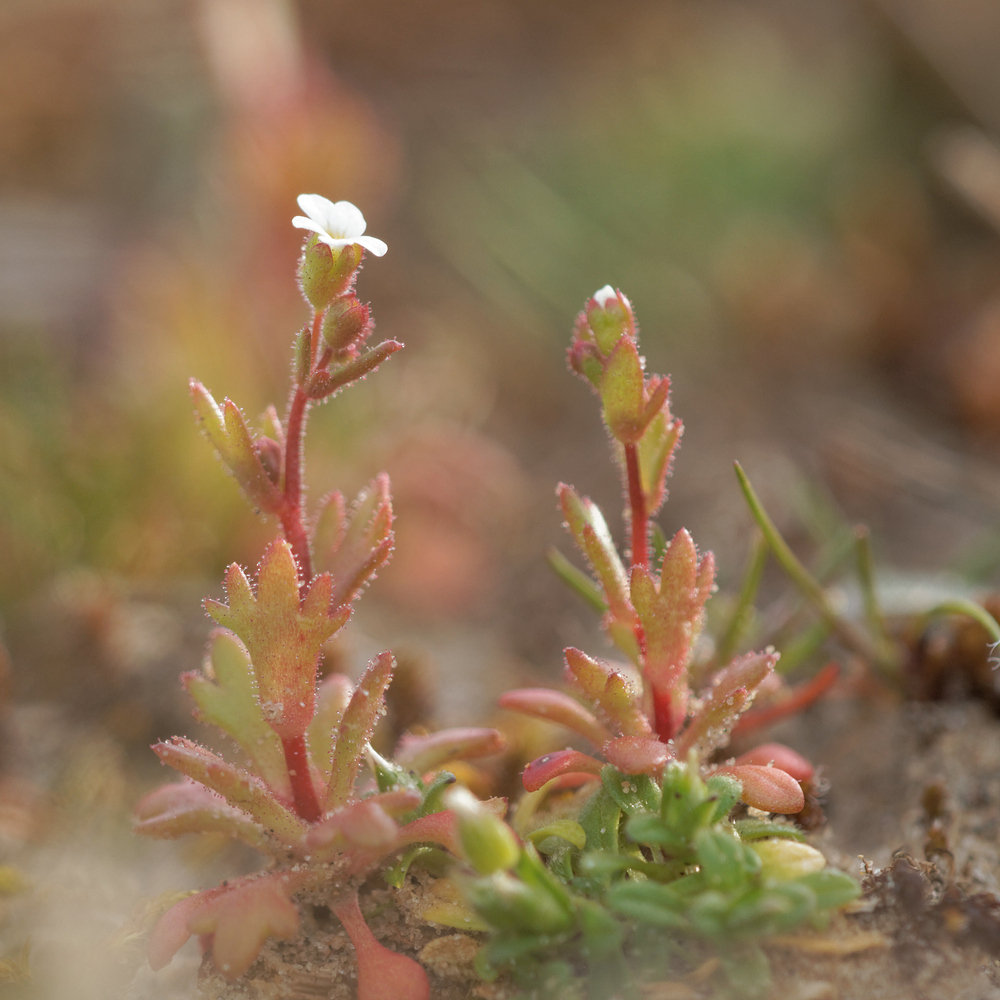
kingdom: Plantae
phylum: Tracheophyta
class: Magnoliopsida
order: Saxifragales
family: Saxifragaceae
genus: Saxifraga
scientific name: Saxifraga tridactylites
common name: Rue-leaved saxifrage
